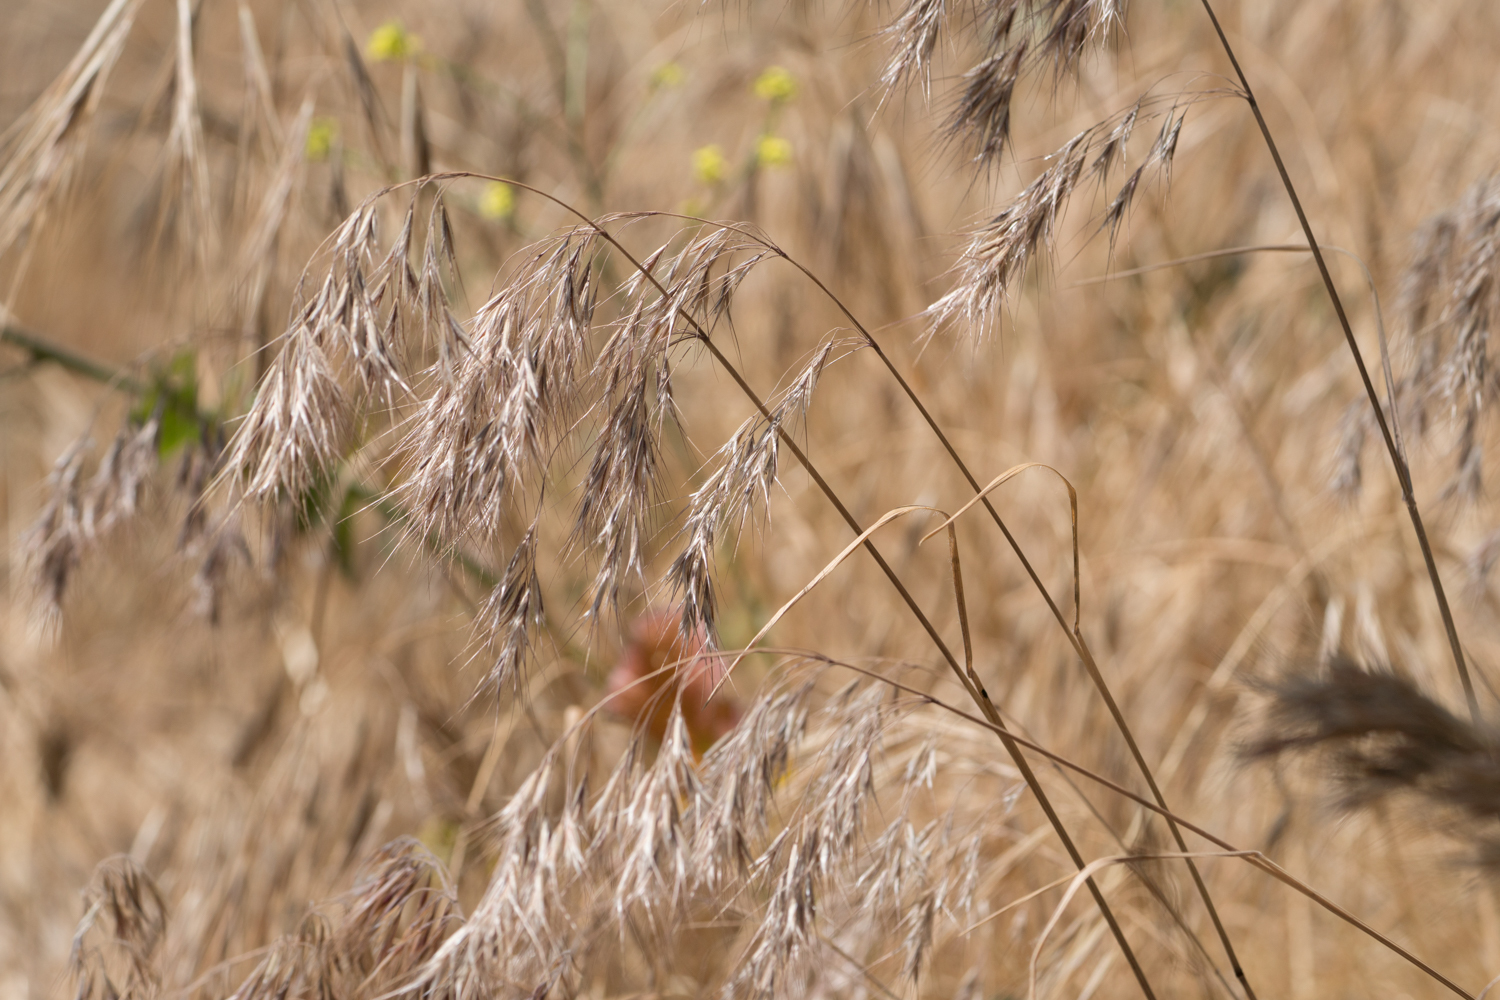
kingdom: Plantae
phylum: Tracheophyta
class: Liliopsida
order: Poales
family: Poaceae
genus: Bromus
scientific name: Bromus tectorum
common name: Cheatgrass
